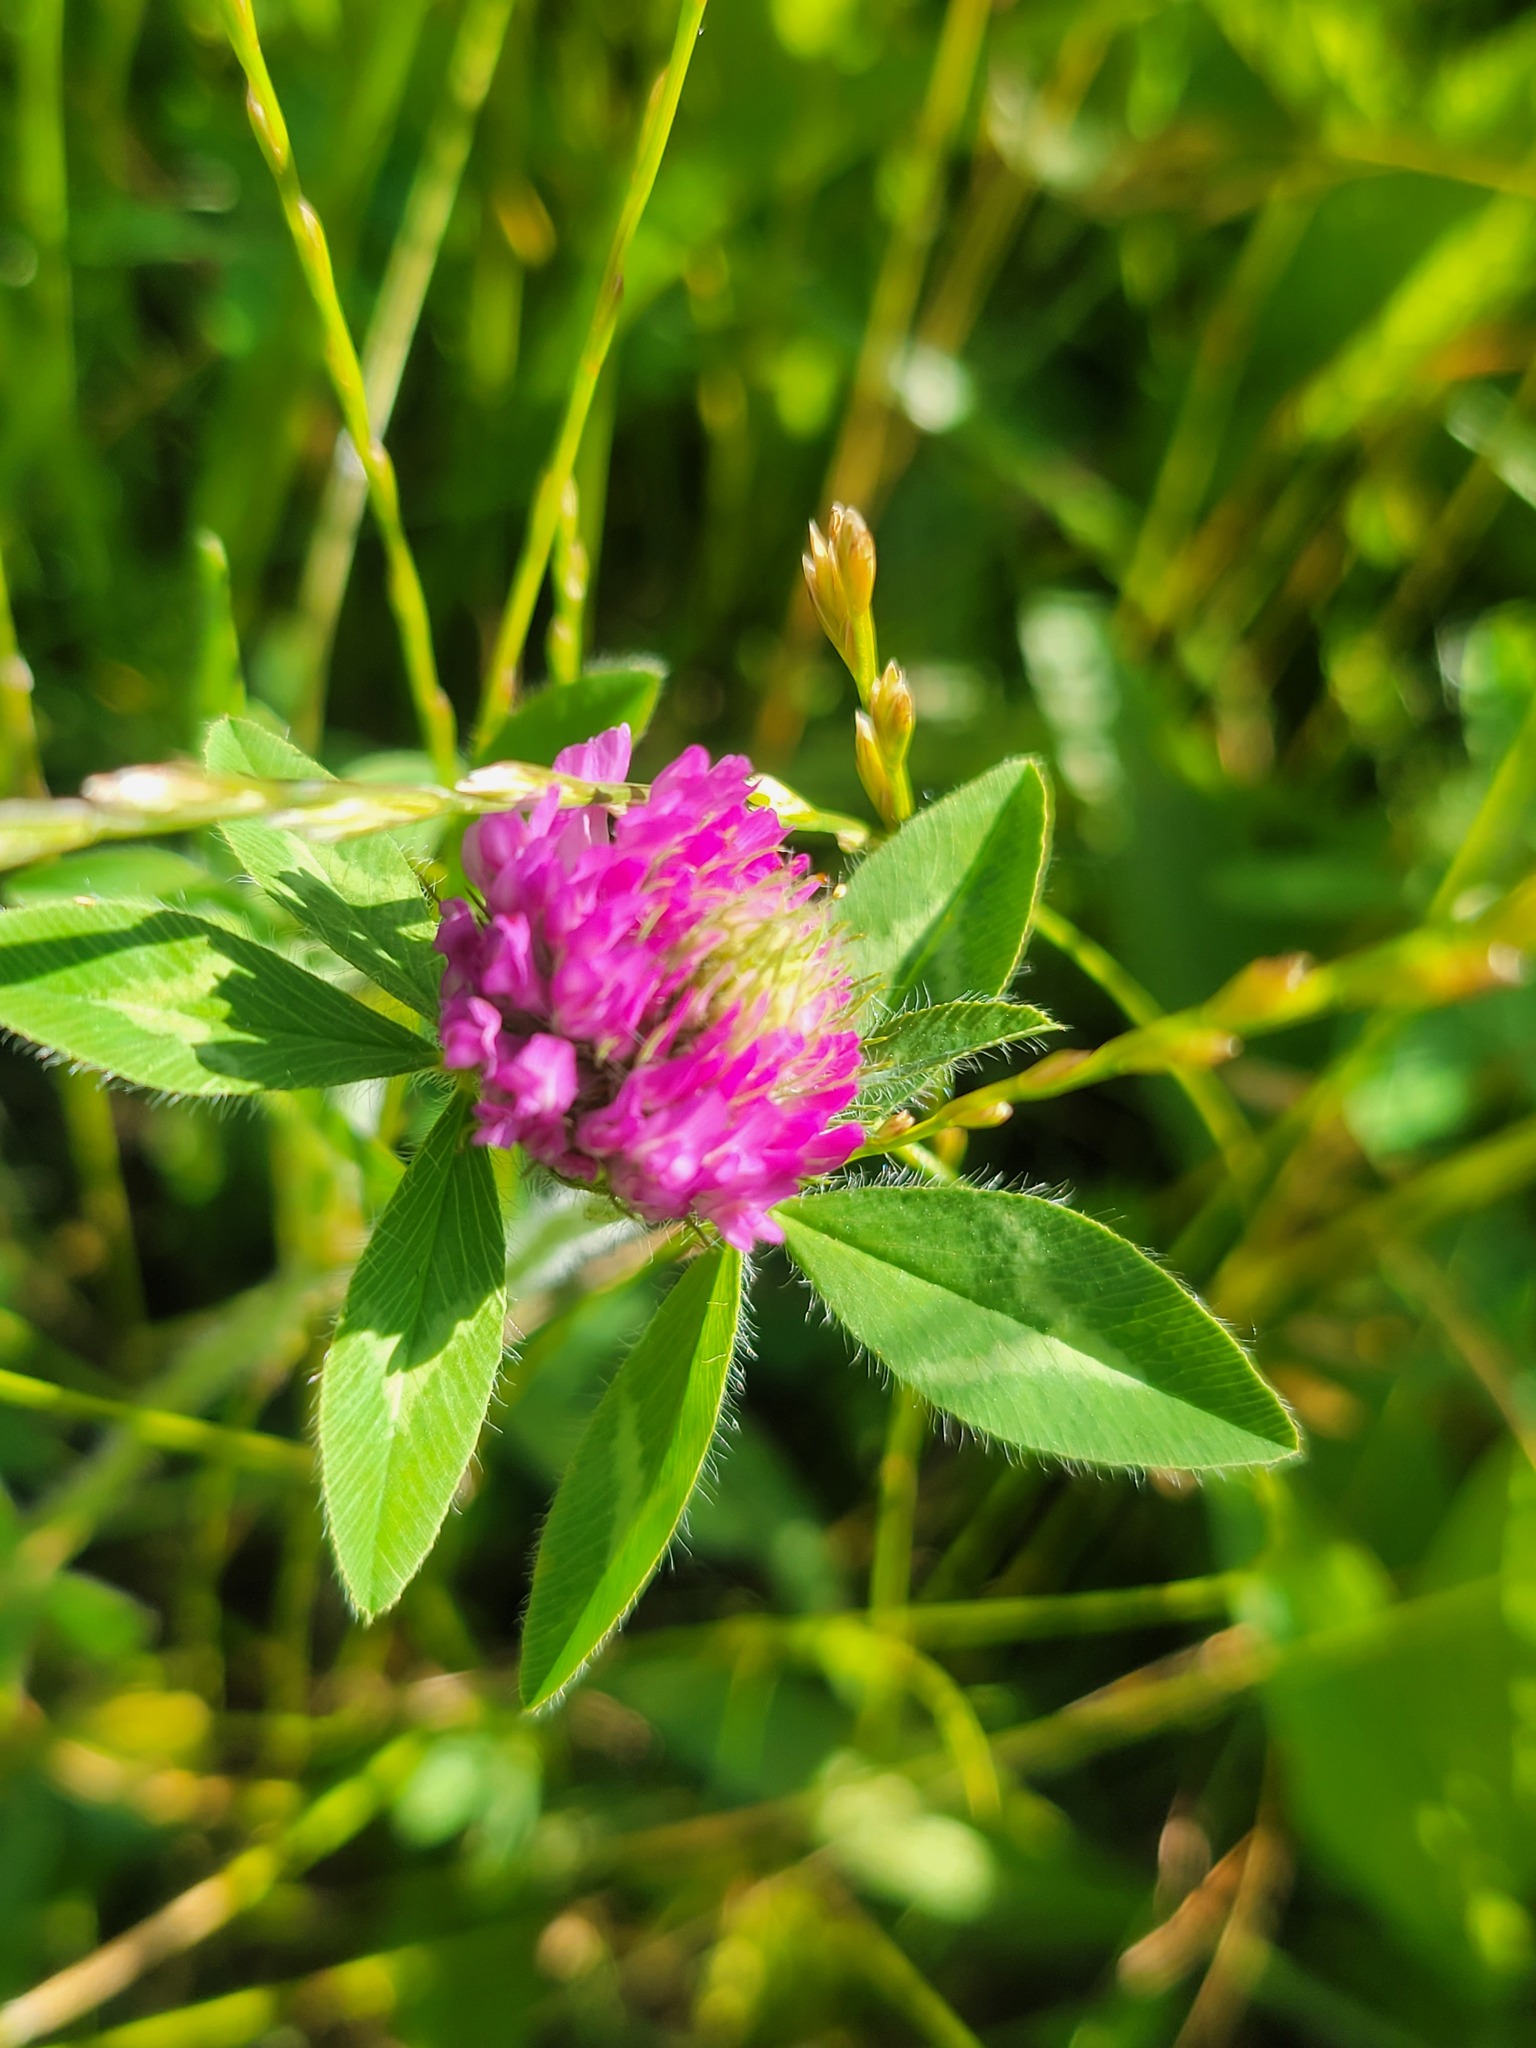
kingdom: Plantae
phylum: Tracheophyta
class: Magnoliopsida
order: Fabales
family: Fabaceae
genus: Trifolium
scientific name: Trifolium pratense
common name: Red clover
